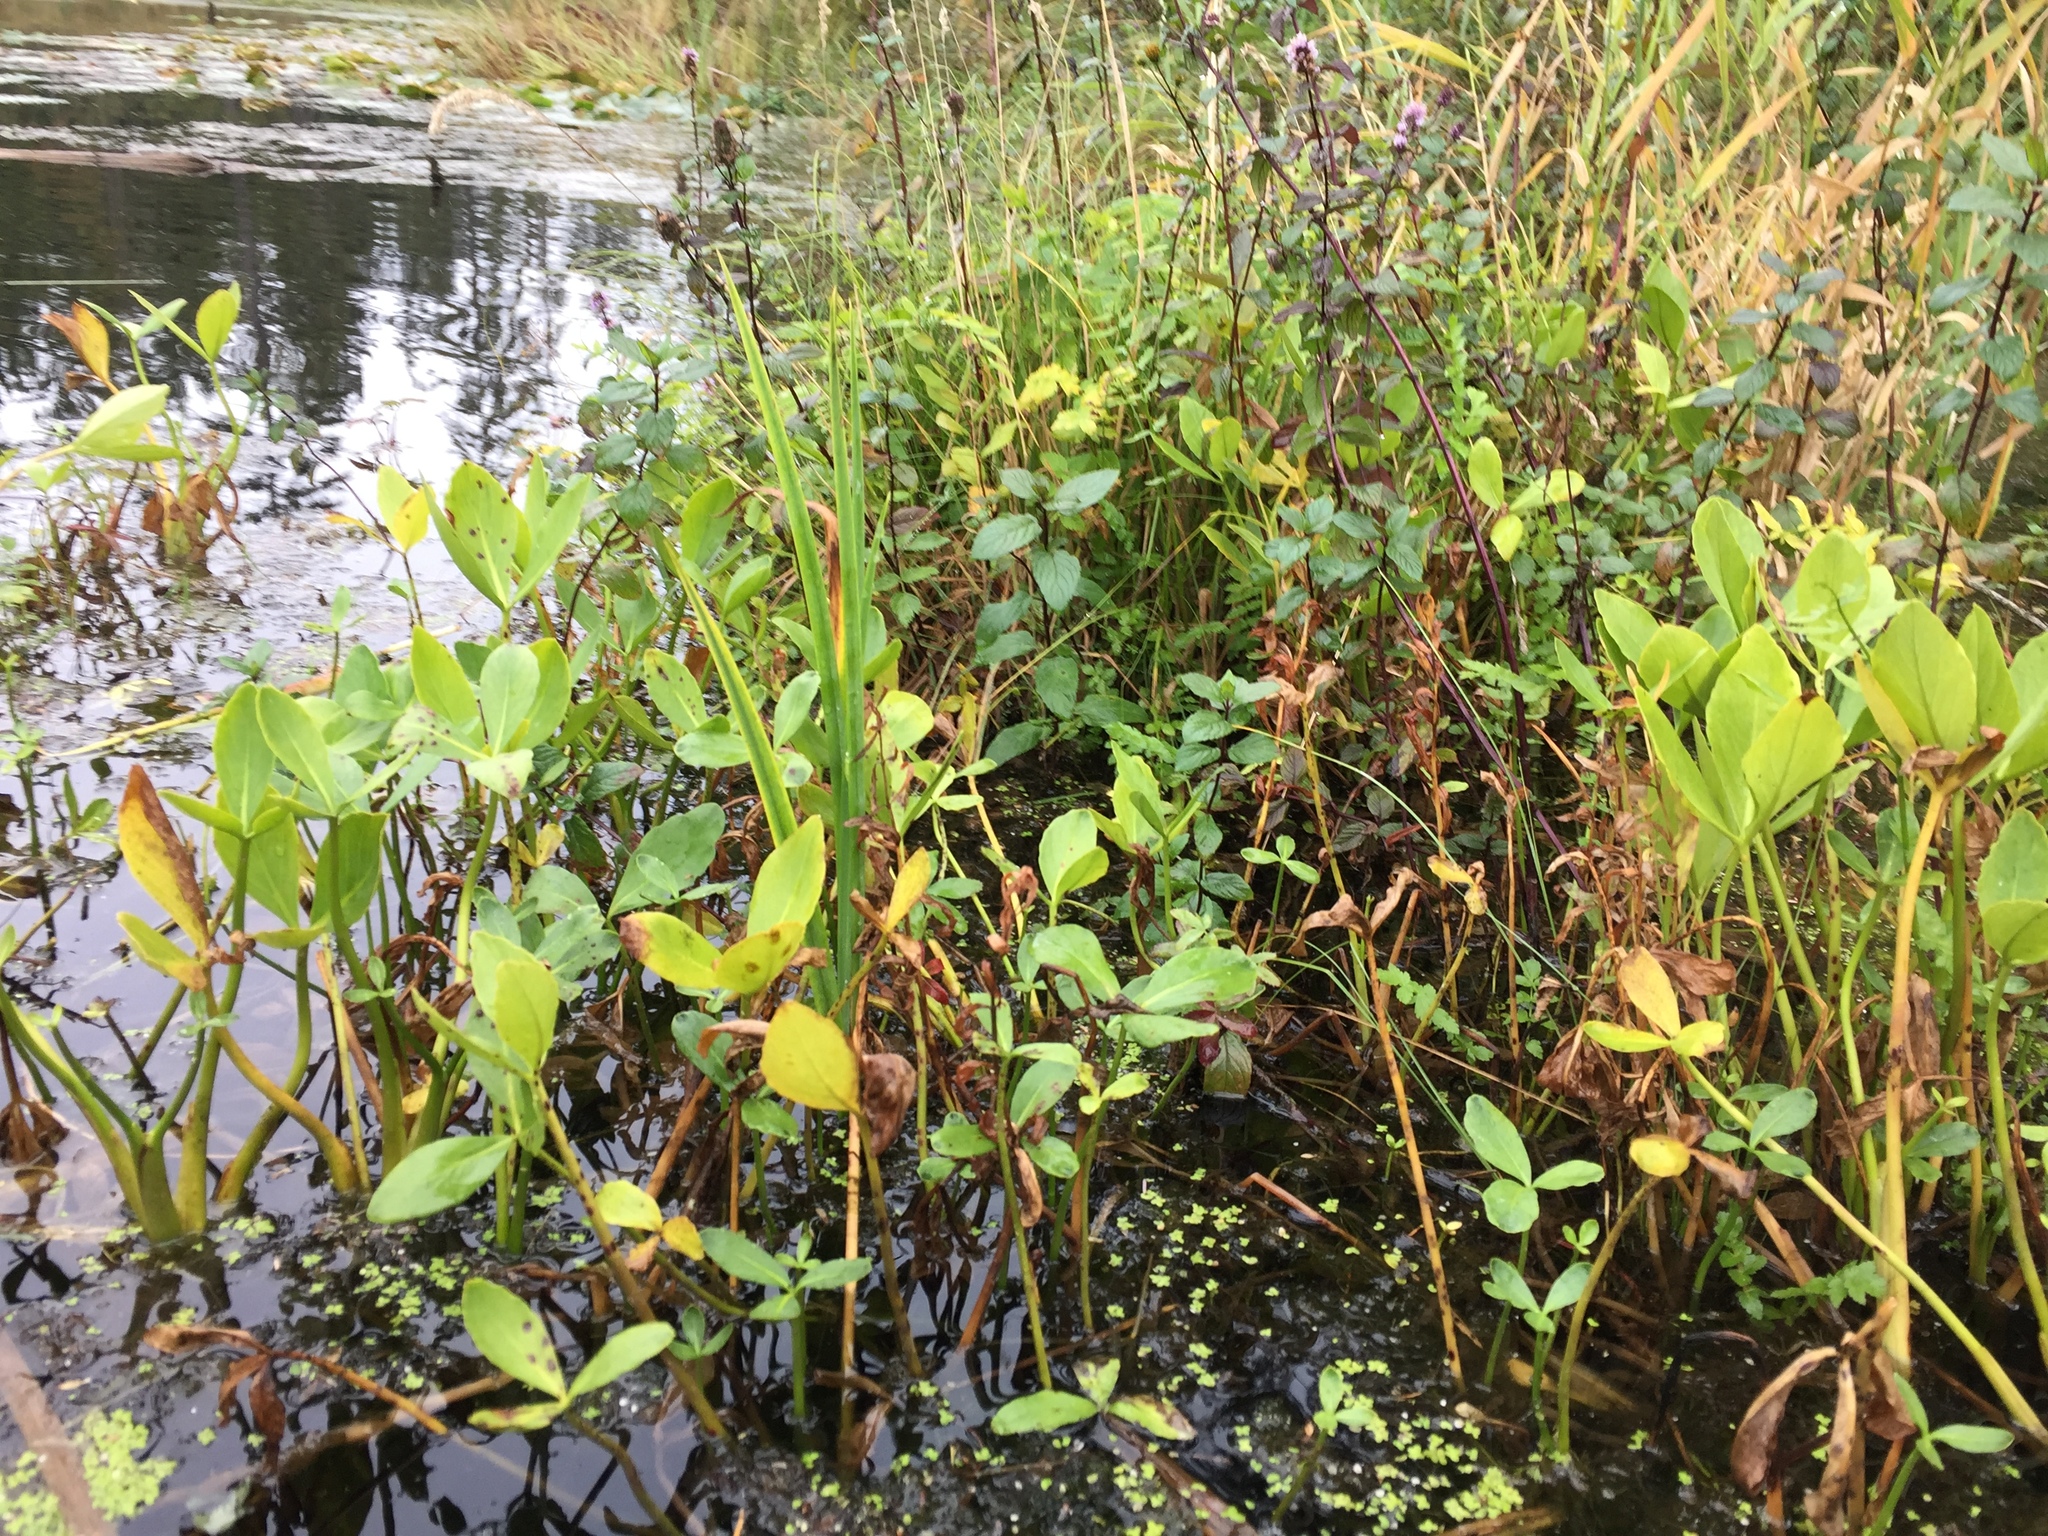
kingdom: Plantae
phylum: Tracheophyta
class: Magnoliopsida
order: Asterales
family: Menyanthaceae
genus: Menyanthes
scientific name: Menyanthes trifoliata
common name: Bogbean
